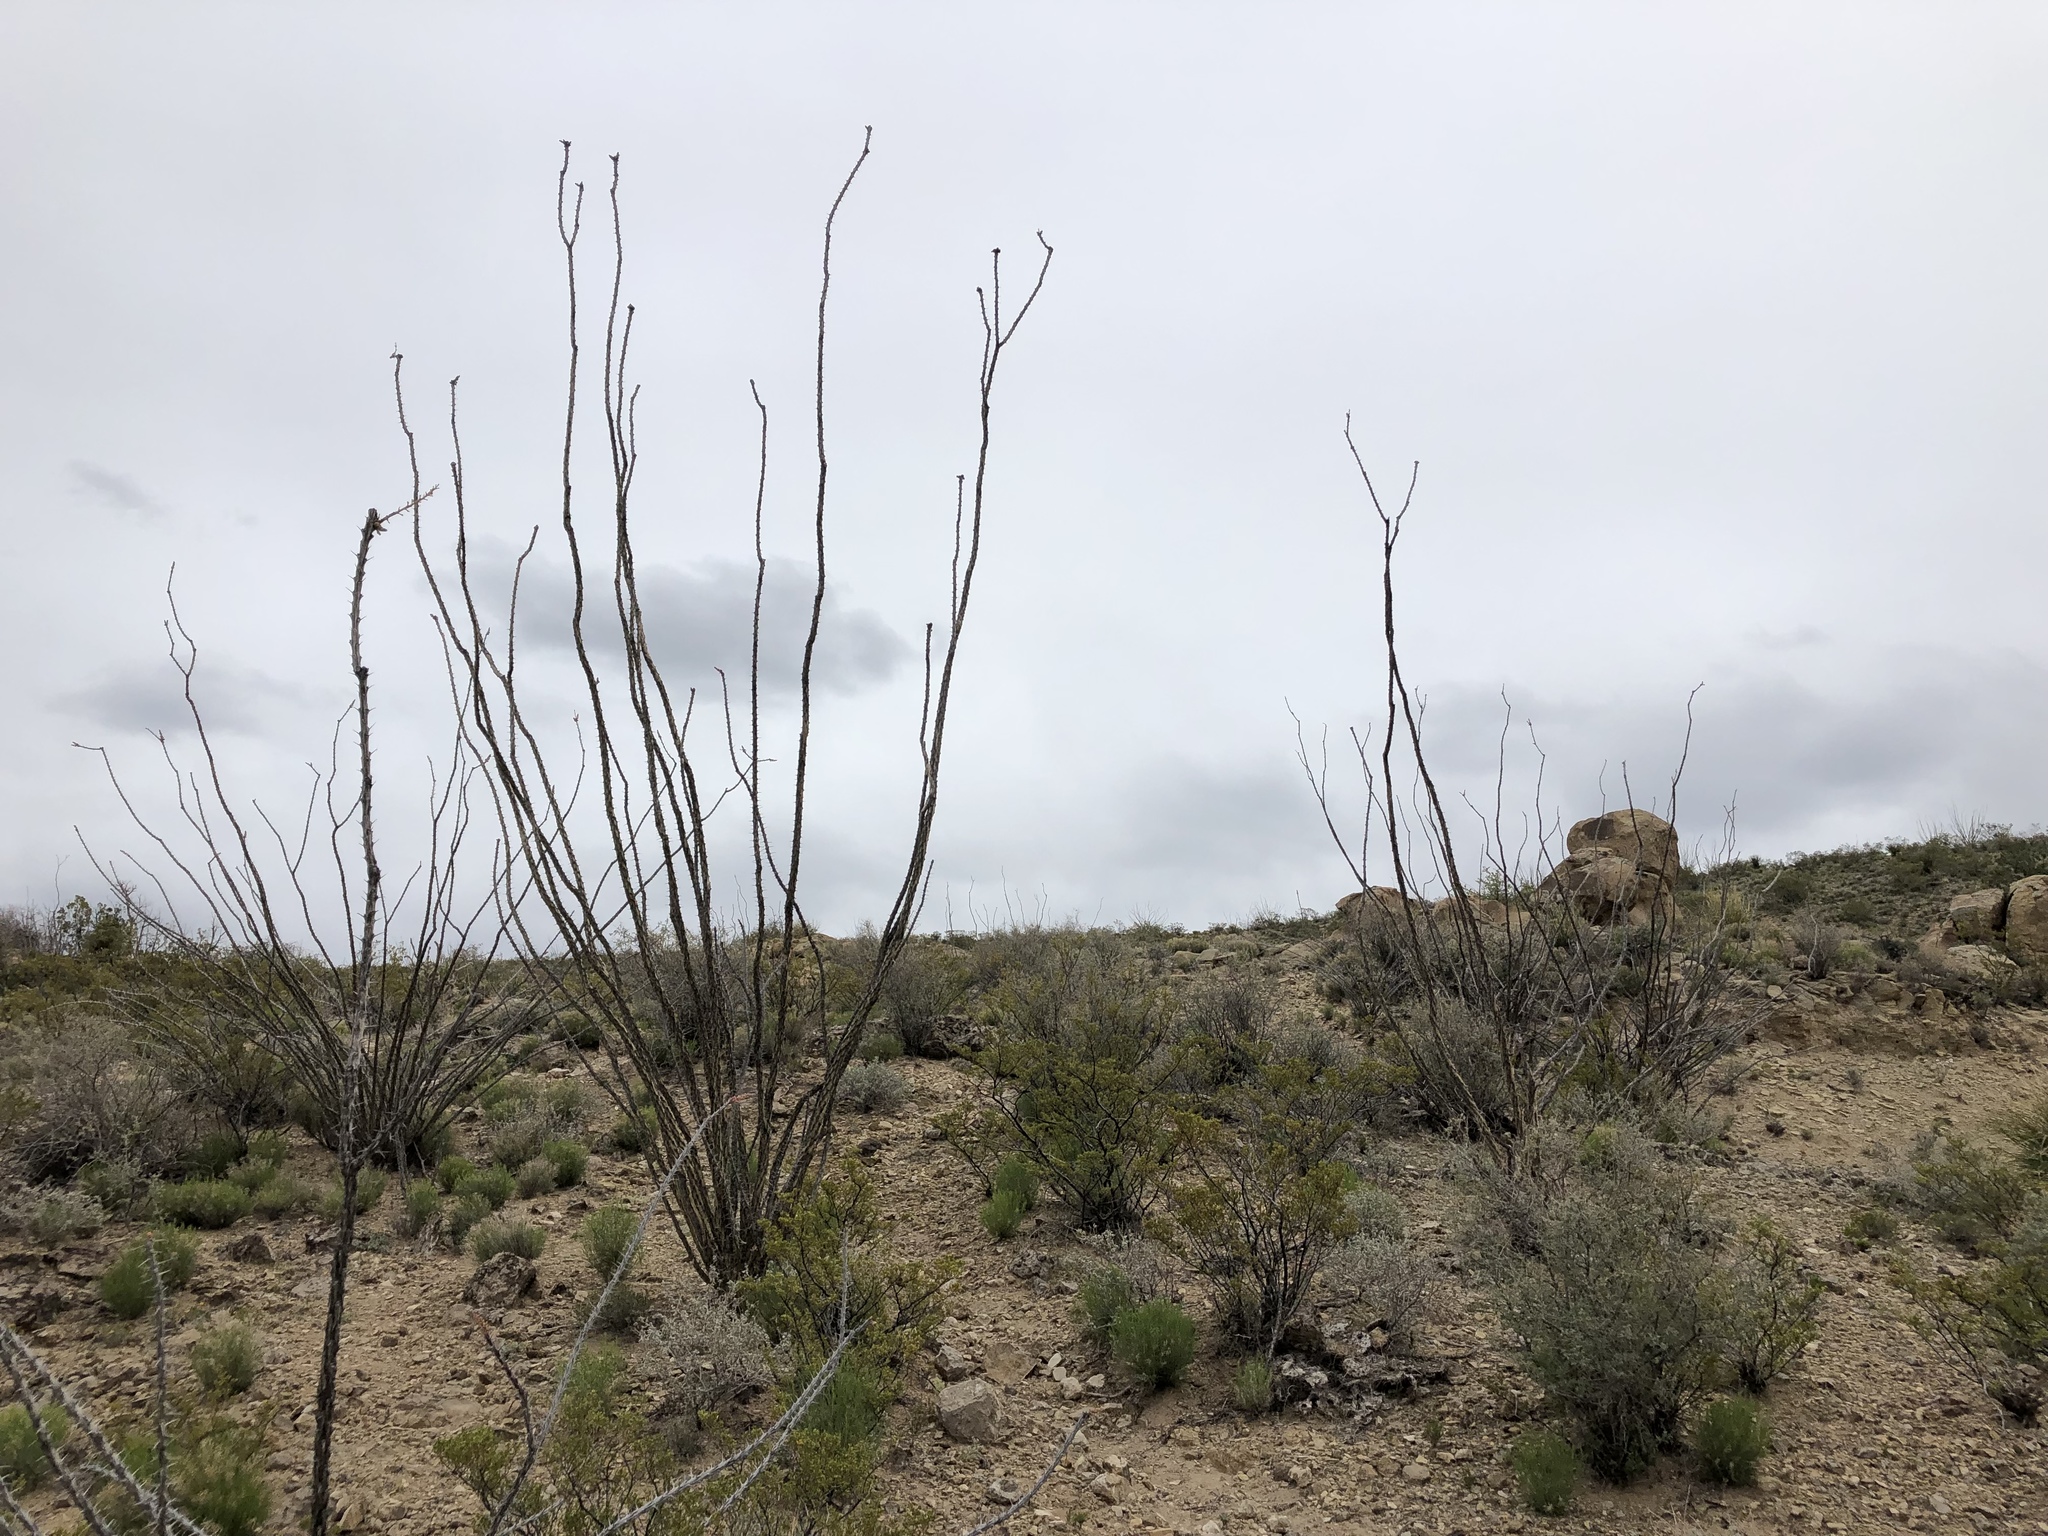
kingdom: Plantae
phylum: Tracheophyta
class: Magnoliopsida
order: Ericales
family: Fouquieriaceae
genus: Fouquieria
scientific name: Fouquieria splendens
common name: Vine-cactus
